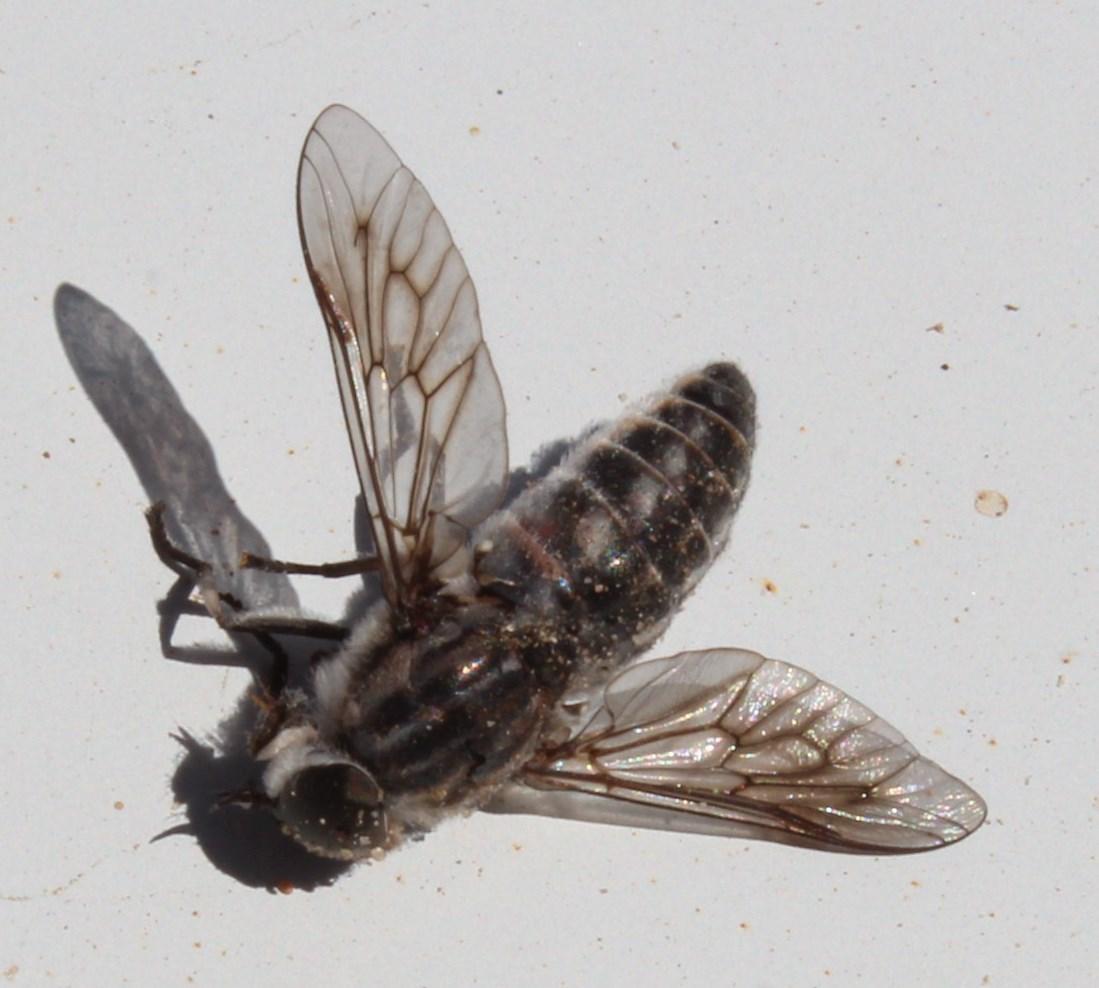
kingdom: Animalia
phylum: Arthropoda
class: Insecta
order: Diptera
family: Tabanidae
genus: Tabanus
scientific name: Tabanus leucostomus
